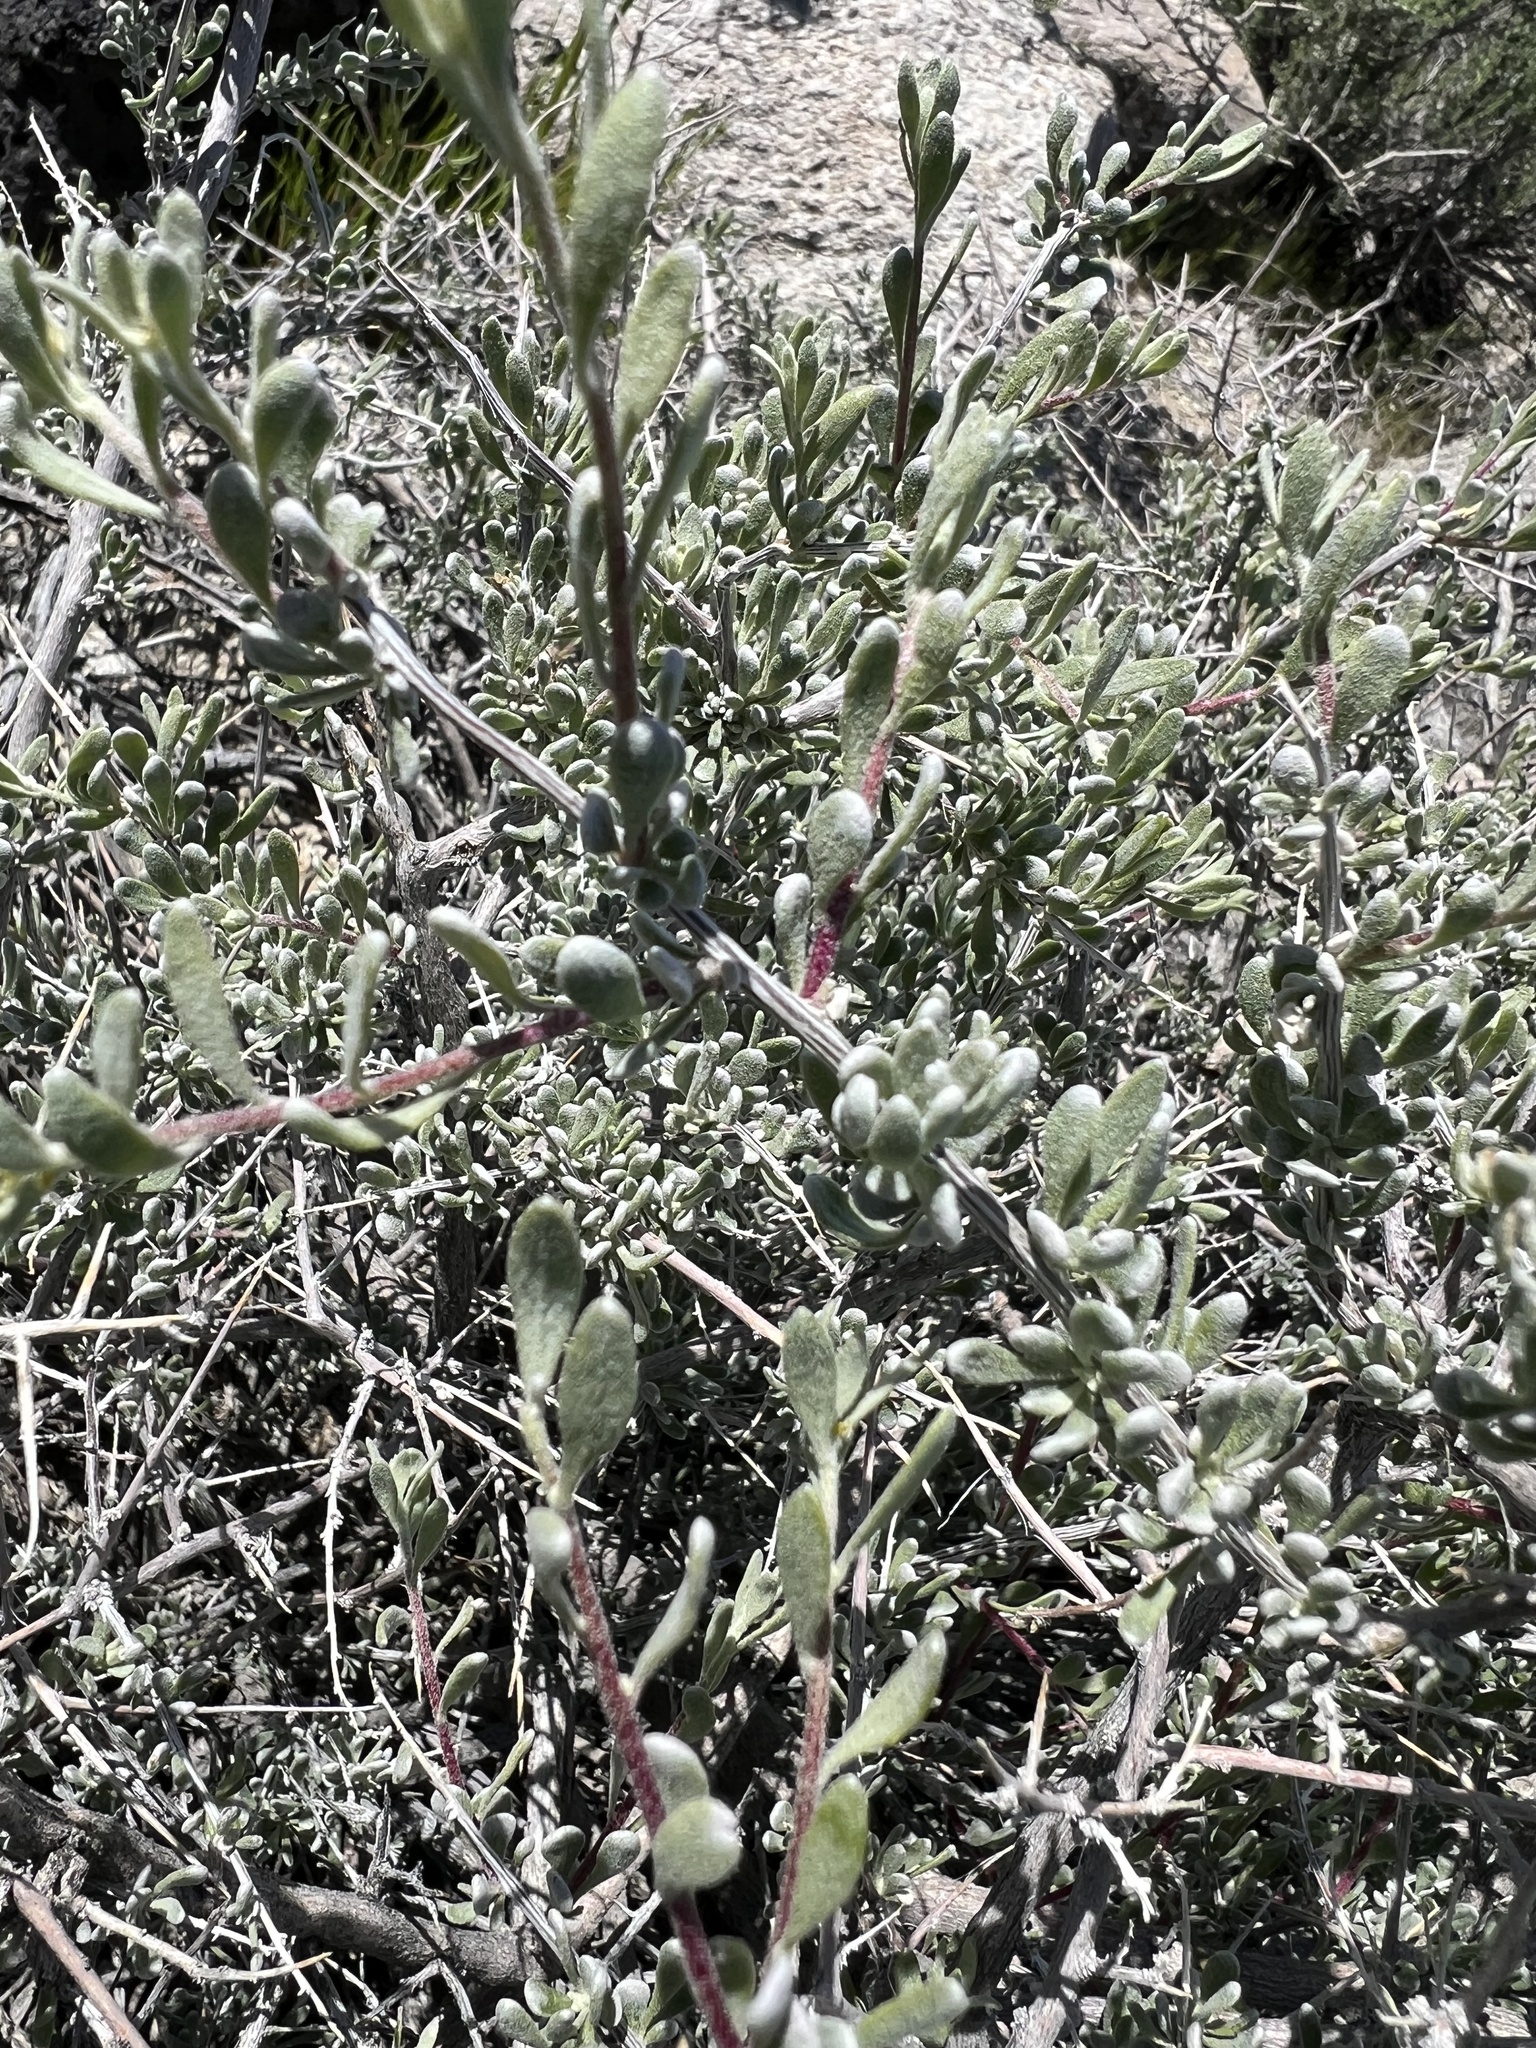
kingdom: Plantae
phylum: Tracheophyta
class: Magnoliopsida
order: Caryophyllales
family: Amaranthaceae
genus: Grayia
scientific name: Grayia spinosa
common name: Spiny hopsage
